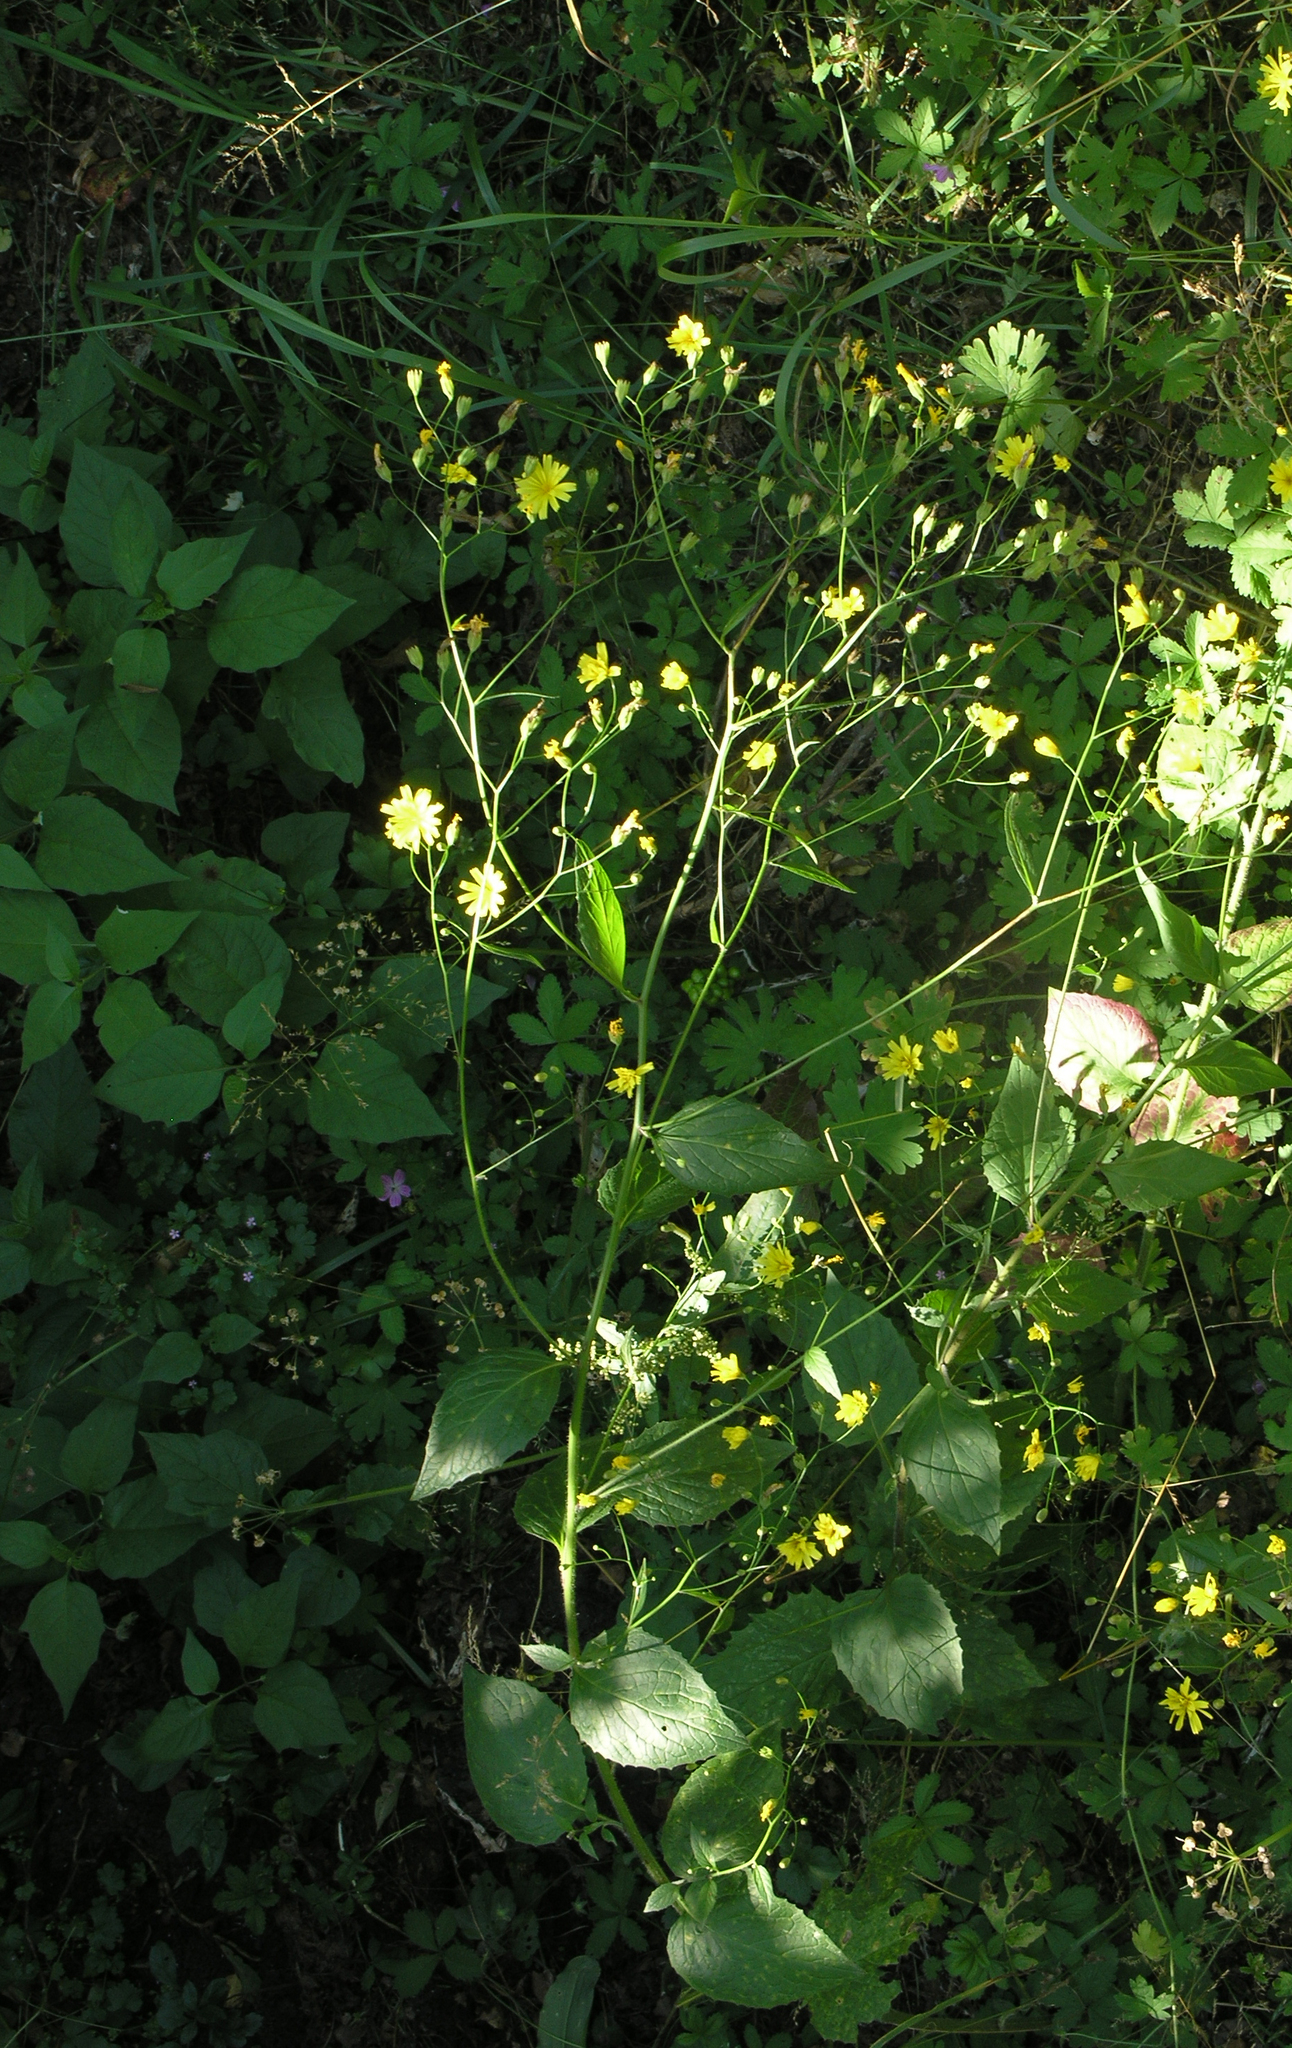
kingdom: Plantae
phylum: Tracheophyta
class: Magnoliopsida
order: Asterales
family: Asteraceae
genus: Lapsana
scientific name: Lapsana communis
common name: Nipplewort
